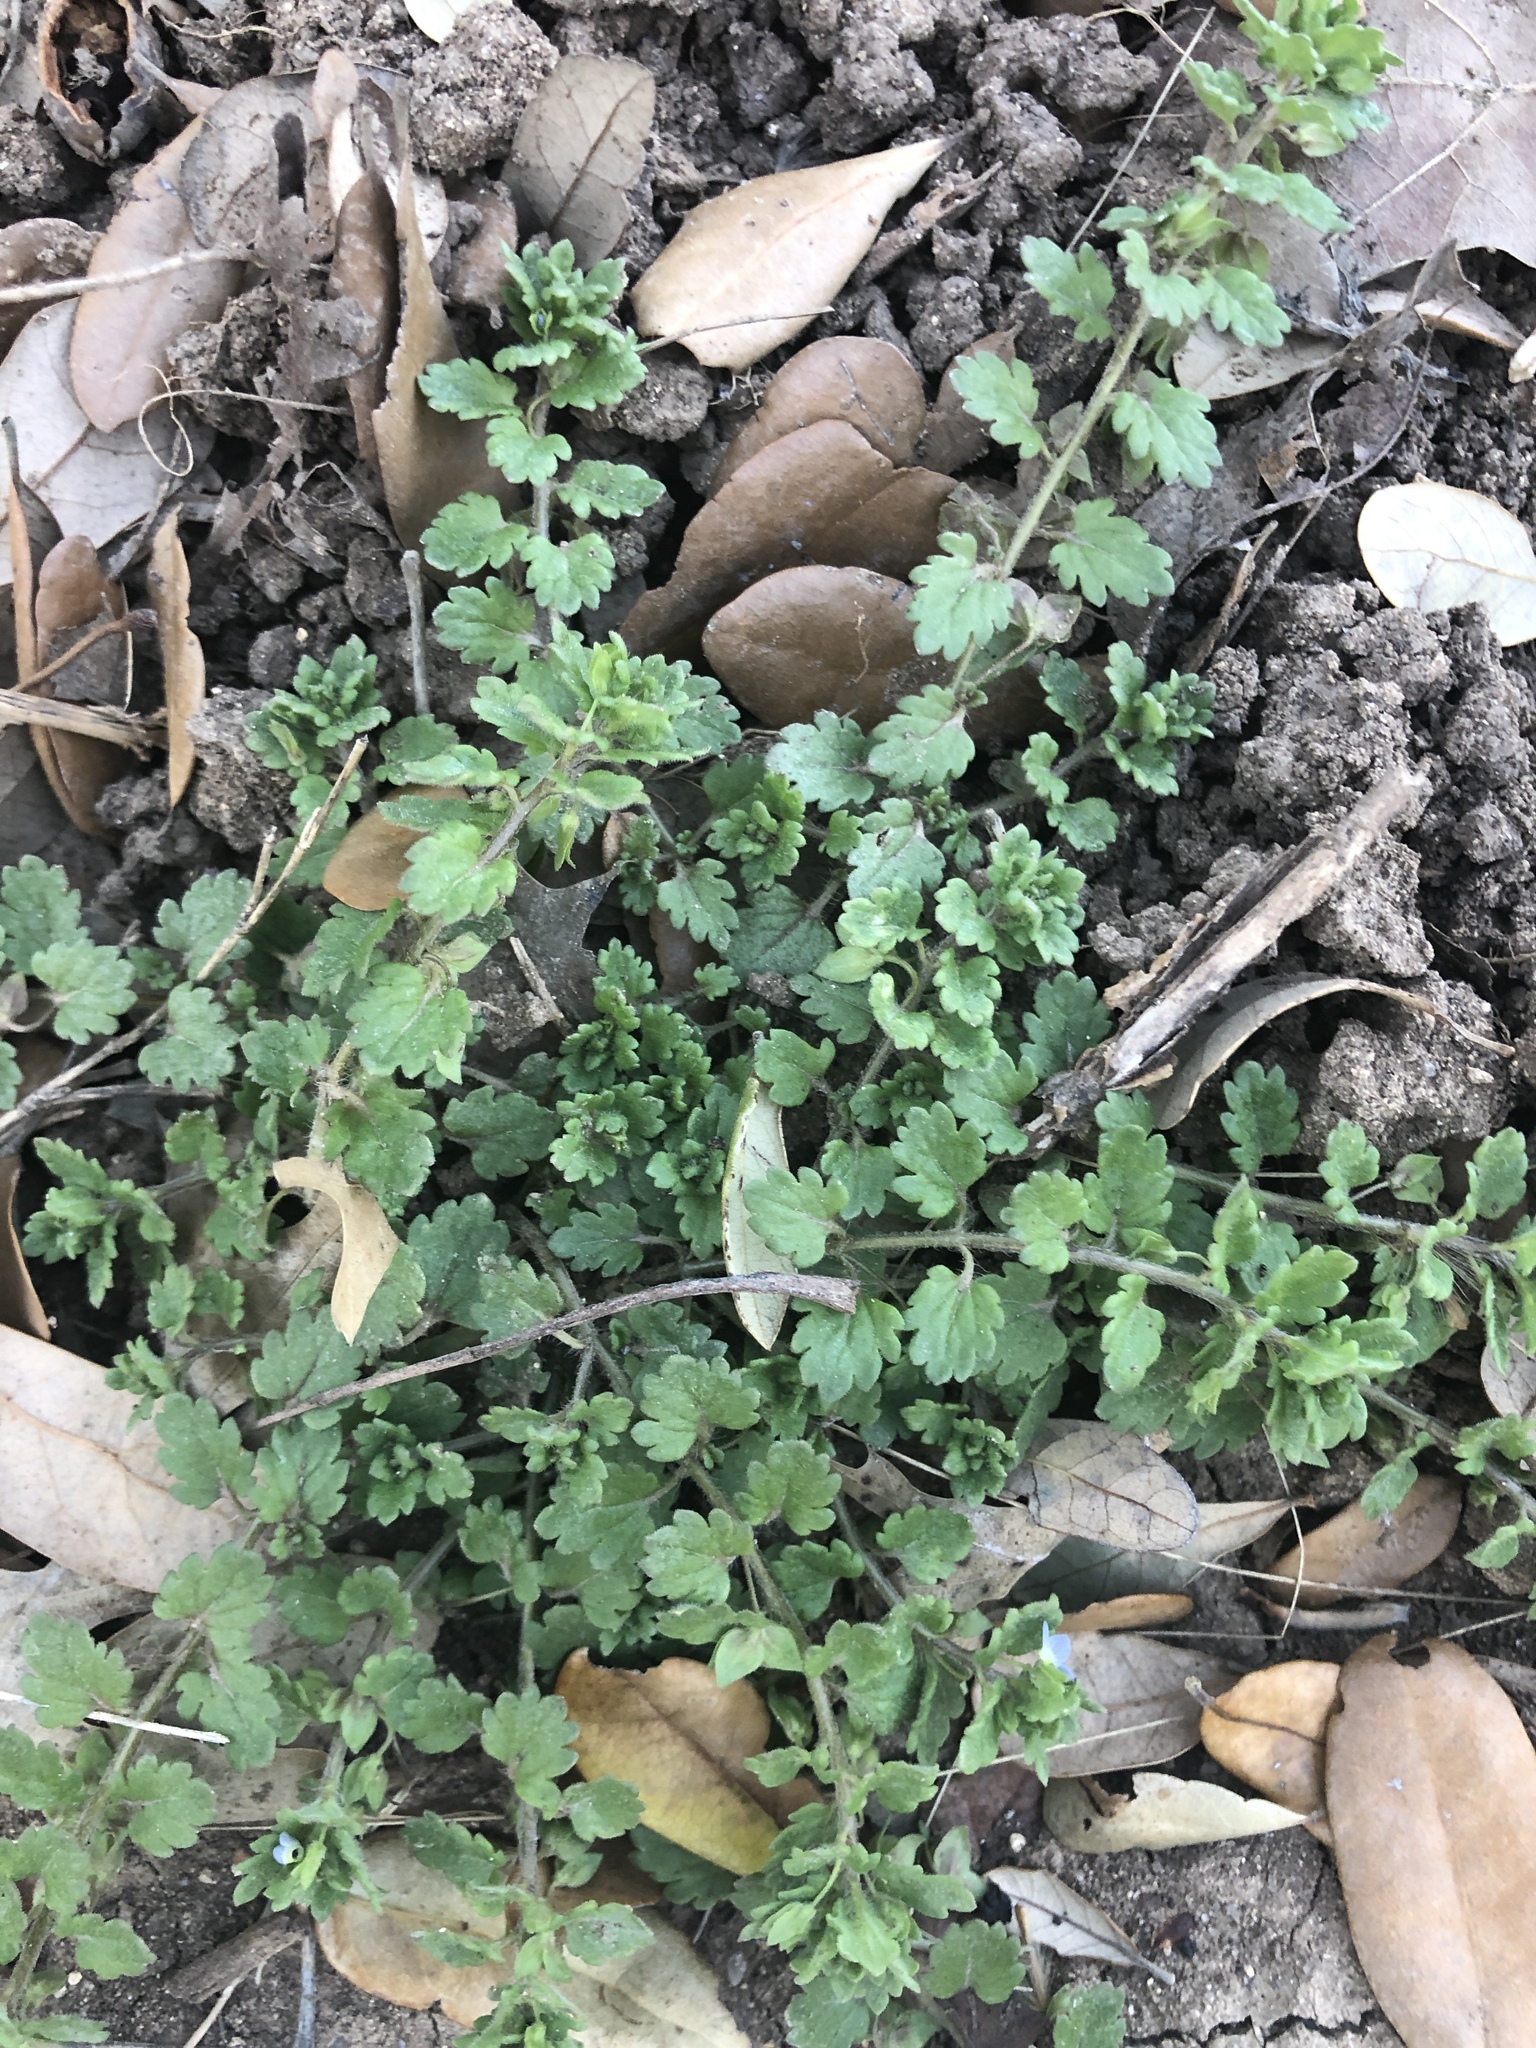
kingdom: Plantae
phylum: Tracheophyta
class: Magnoliopsida
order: Lamiales
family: Plantaginaceae
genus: Veronica
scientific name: Veronica polita
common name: Grey field-speedwell
